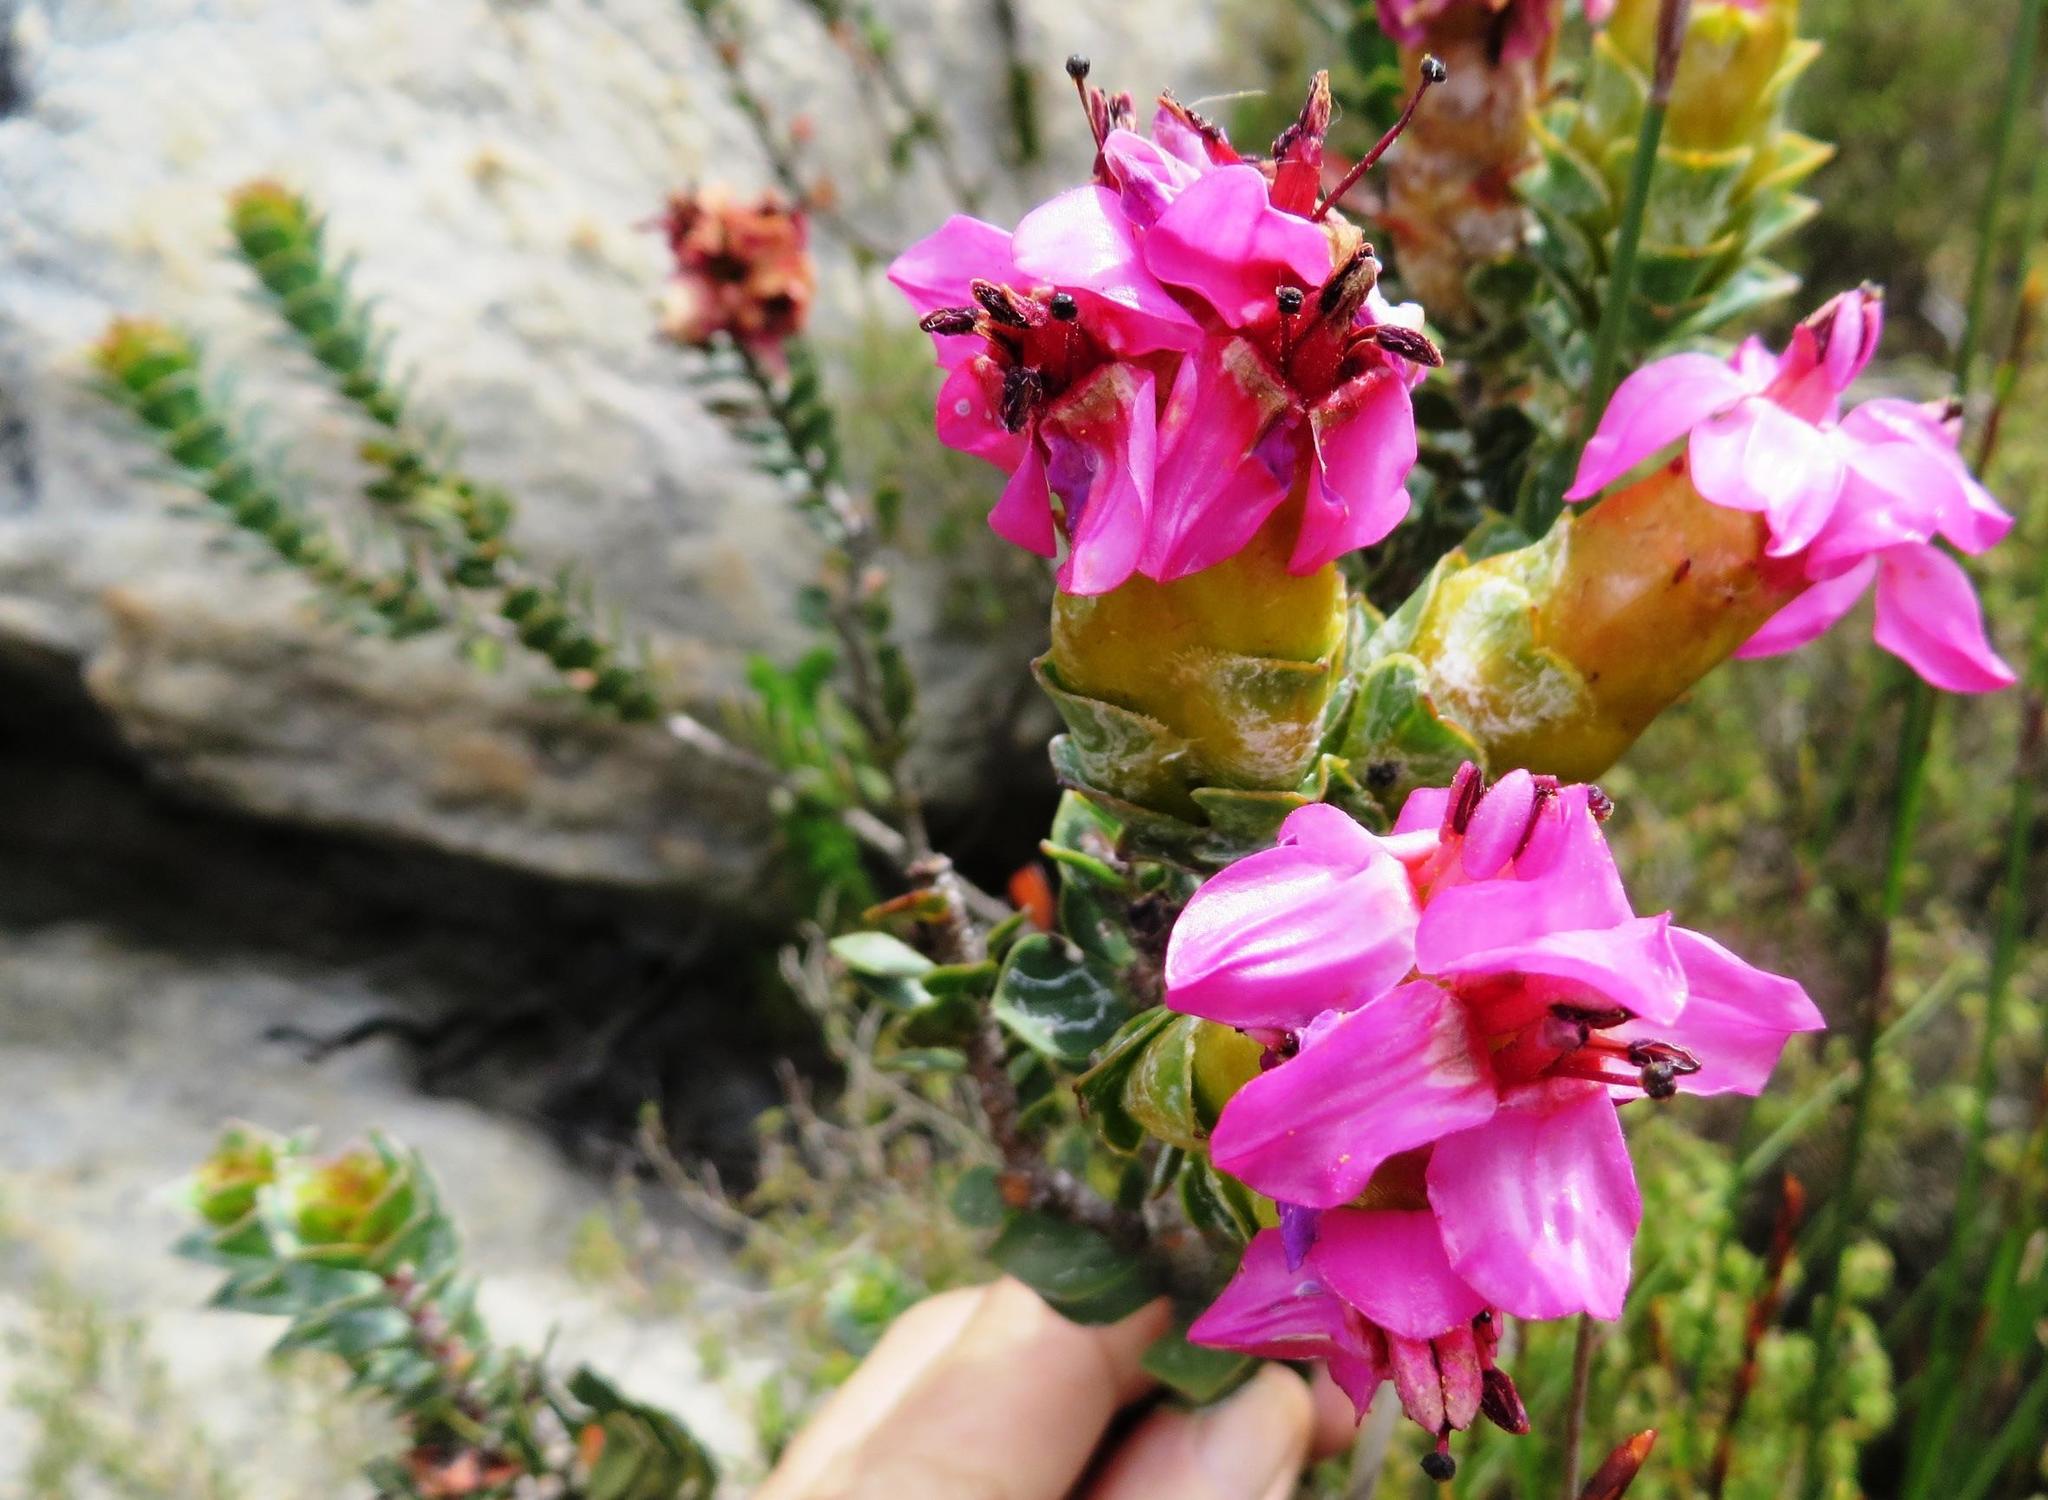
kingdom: Plantae
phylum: Tracheophyta
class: Magnoliopsida
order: Myrtales
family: Penaeaceae
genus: Saltera
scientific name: Saltera sarcocolla
